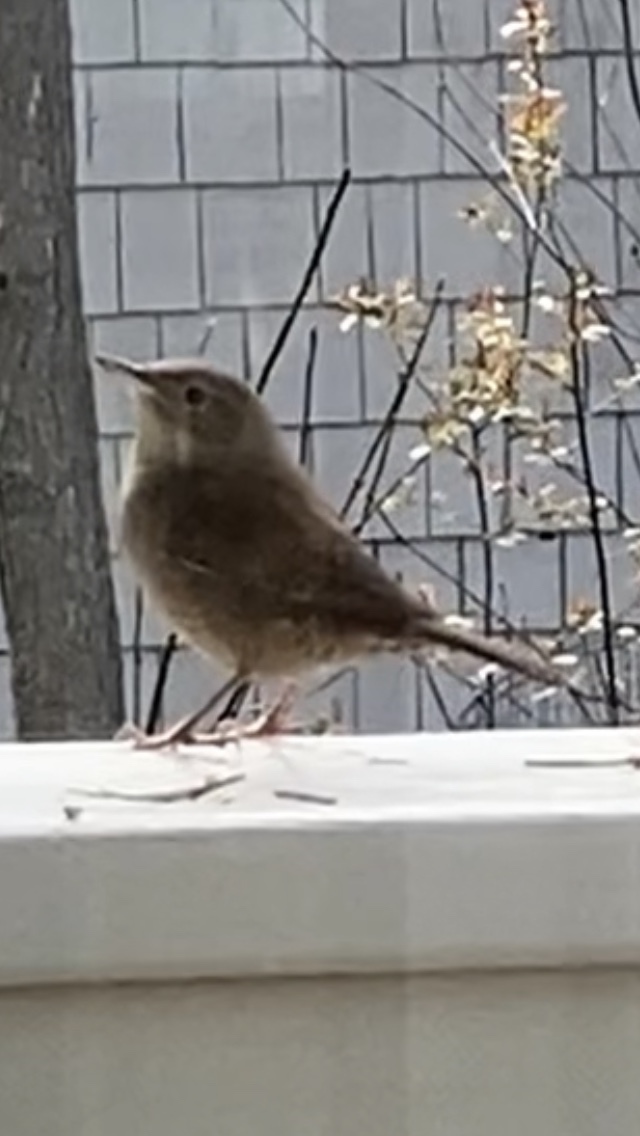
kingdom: Animalia
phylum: Chordata
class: Aves
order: Passeriformes
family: Troglodytidae
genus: Troglodytes
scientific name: Troglodytes aedon
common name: House wren
